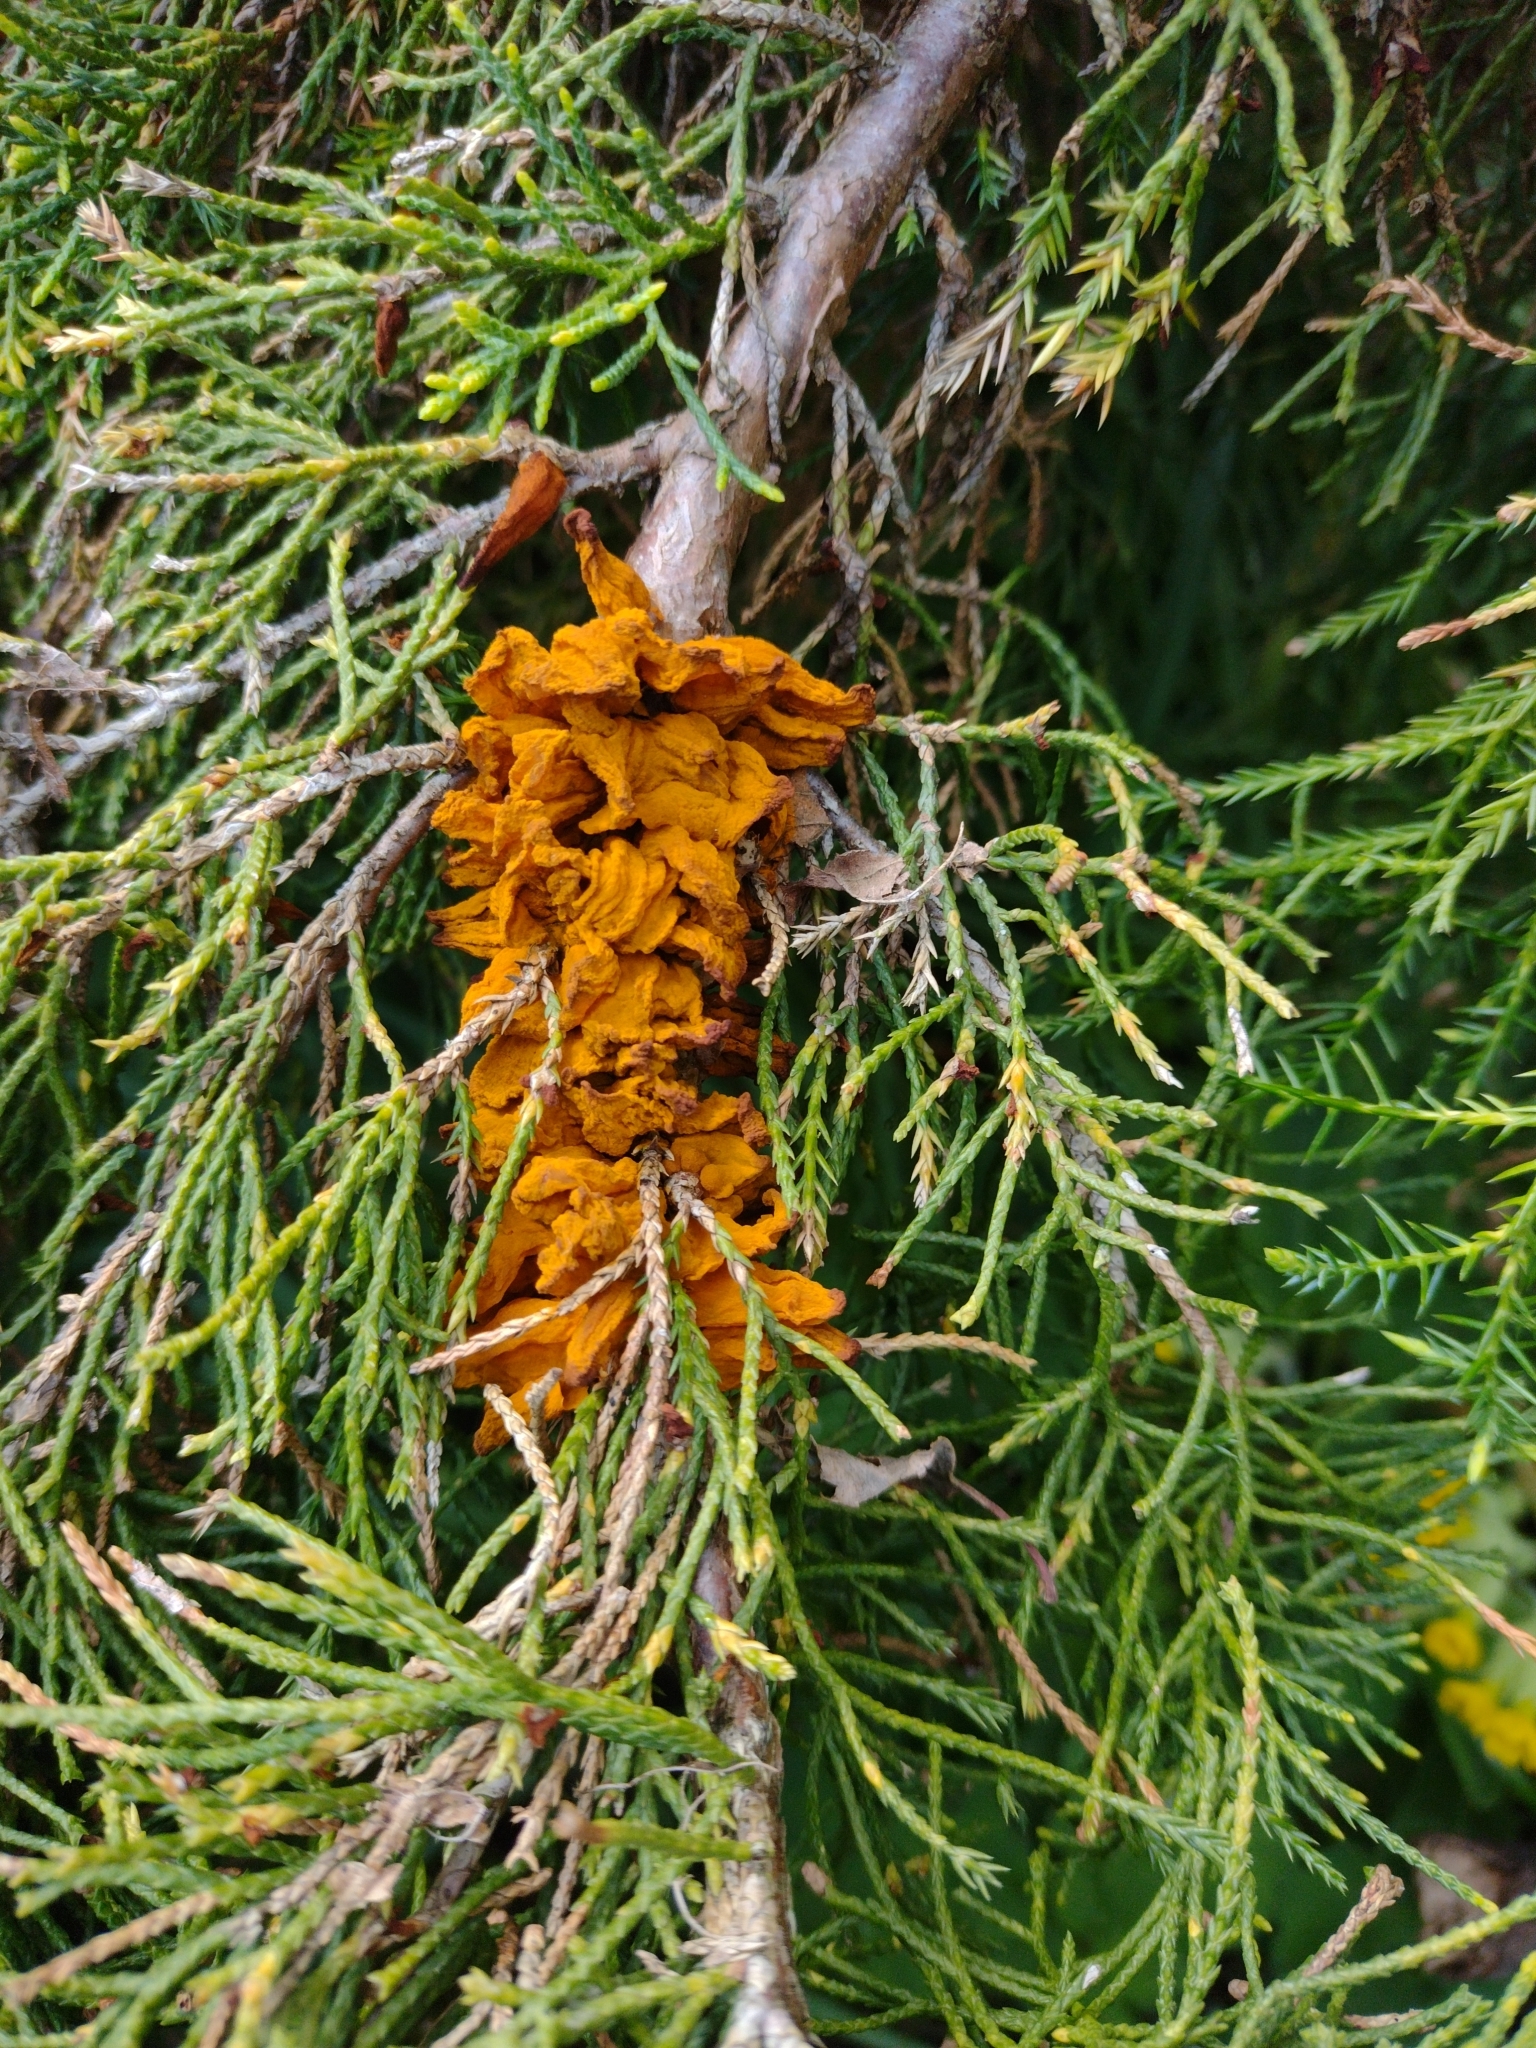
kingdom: Fungi
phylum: Basidiomycota
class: Pucciniomycetes
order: Pucciniales
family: Gymnosporangiaceae
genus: Gymnosporangium
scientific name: Gymnosporangium sabinae
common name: Pear trellis rust fungus
